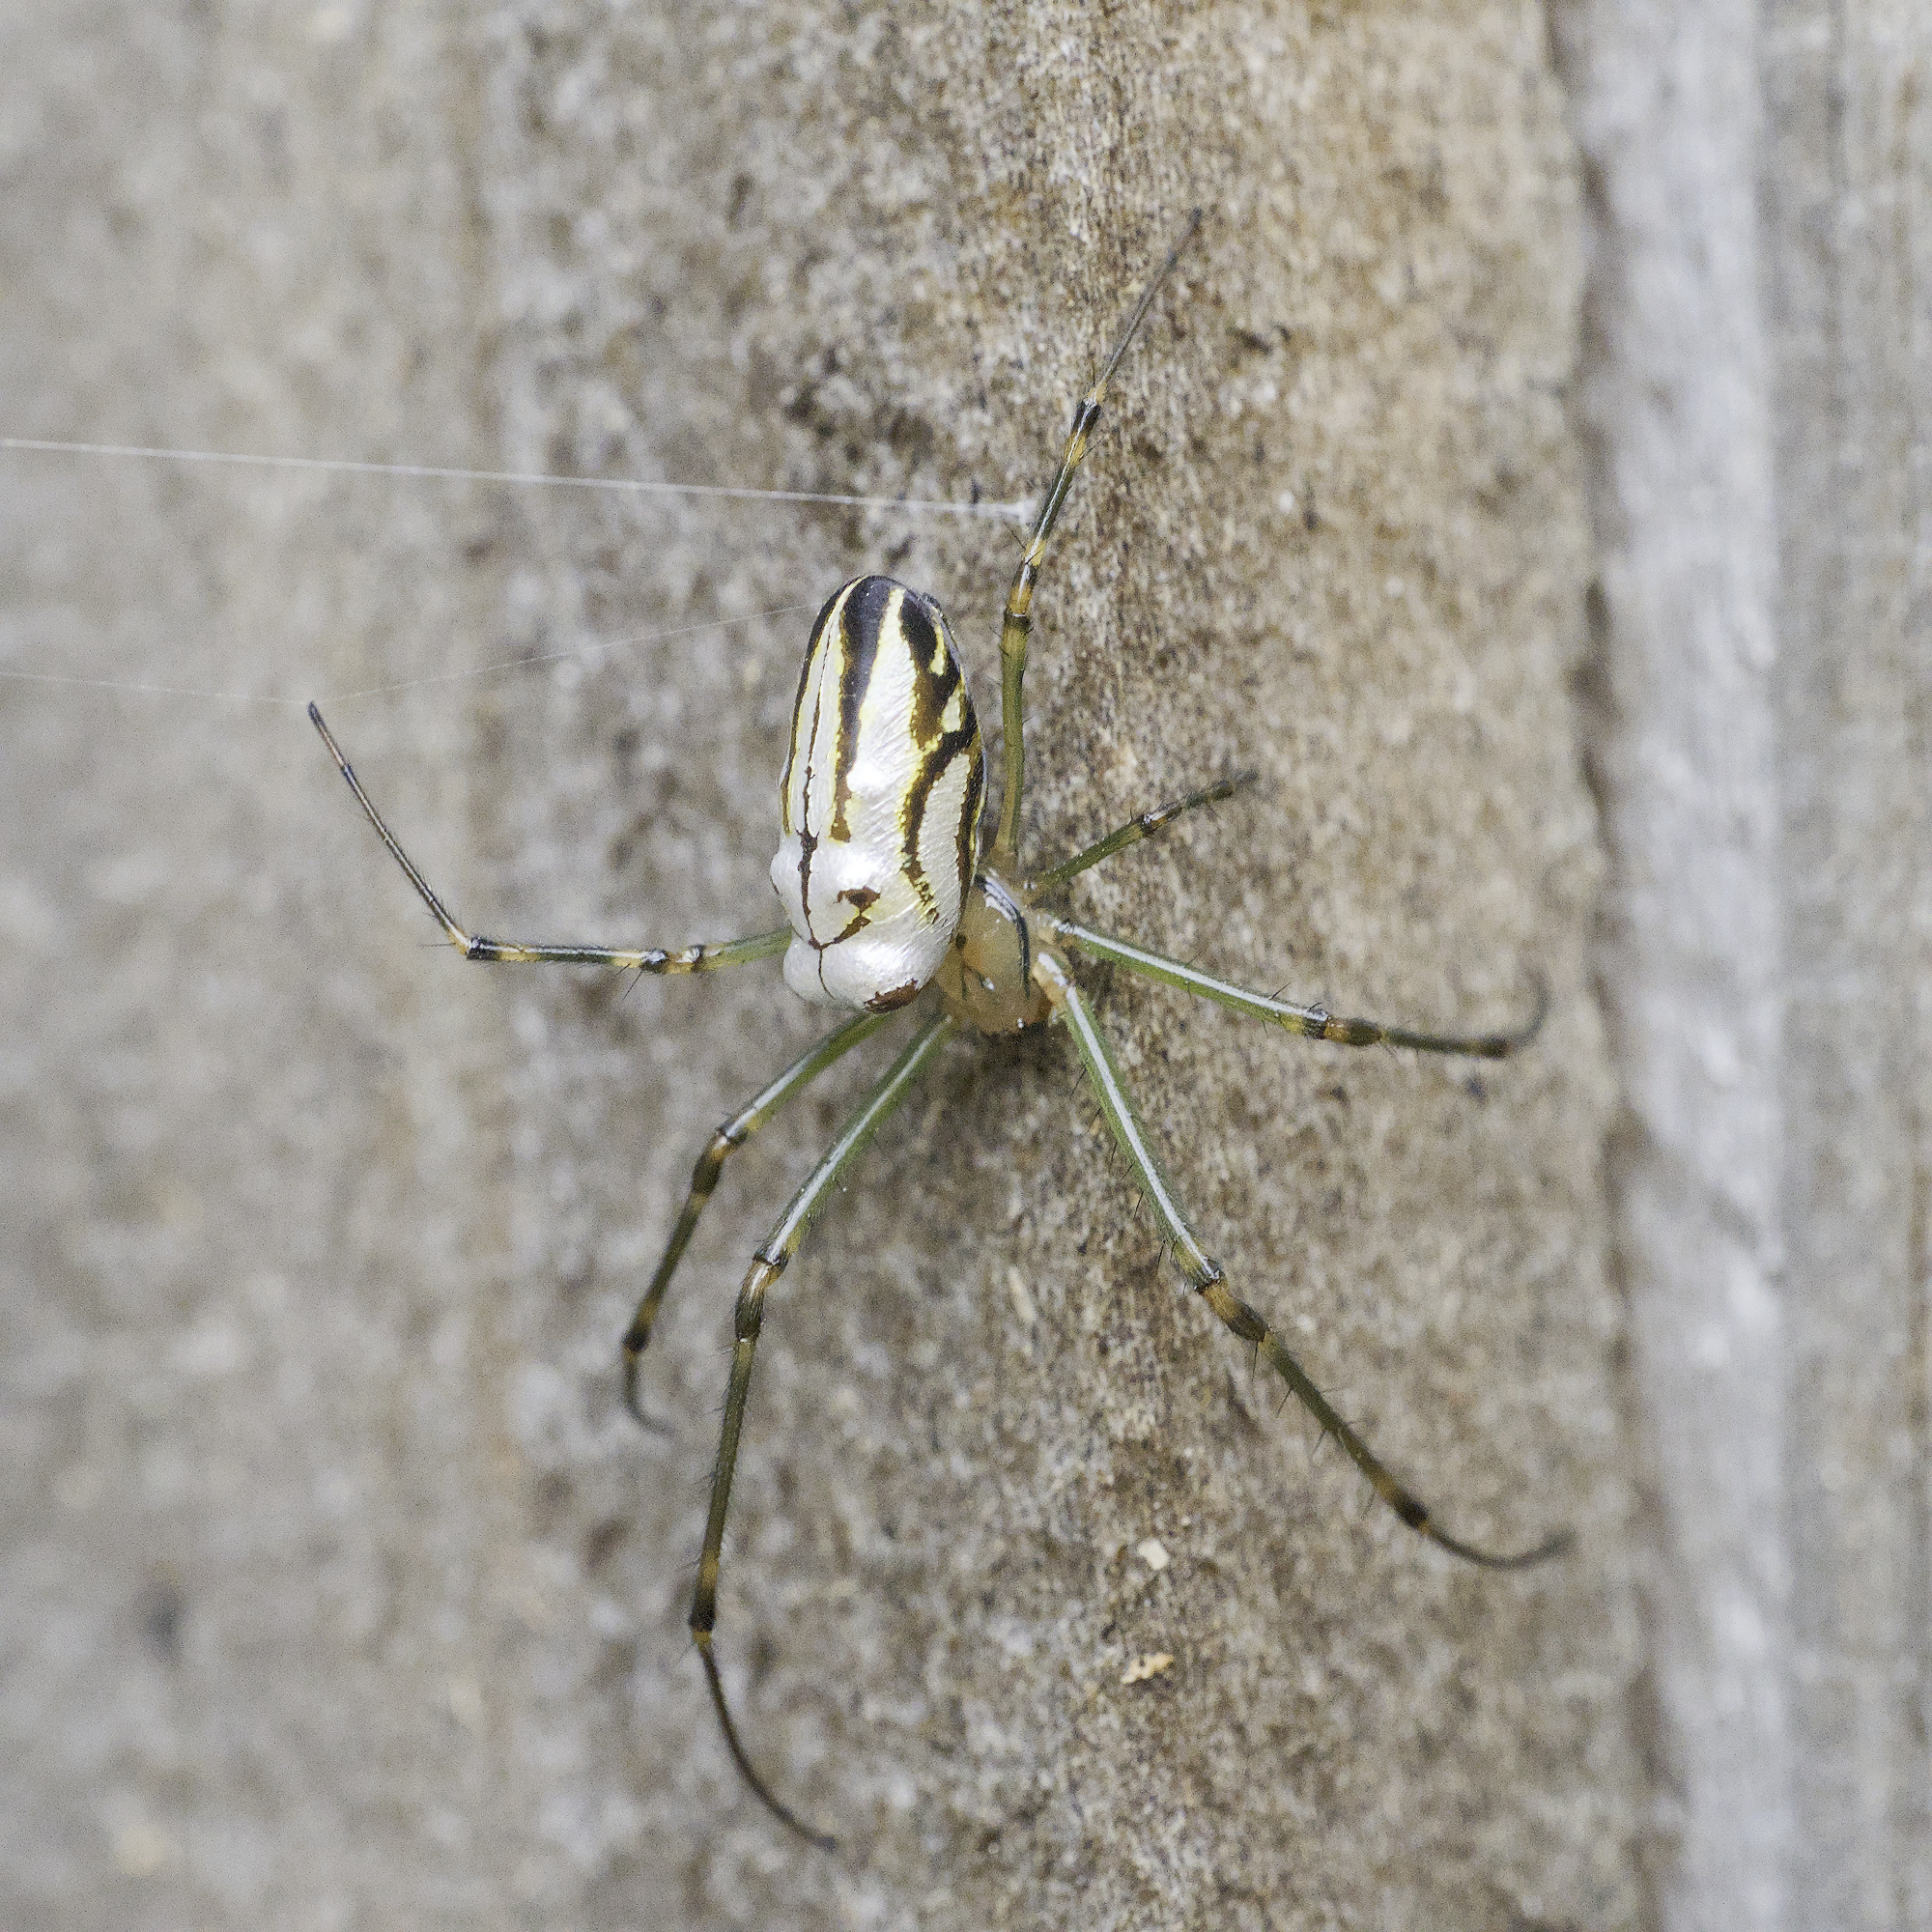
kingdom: Animalia
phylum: Arthropoda
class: Arachnida
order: Araneae
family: Tetragnathidae
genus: Leucauge
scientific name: Leucauge dromedaria
